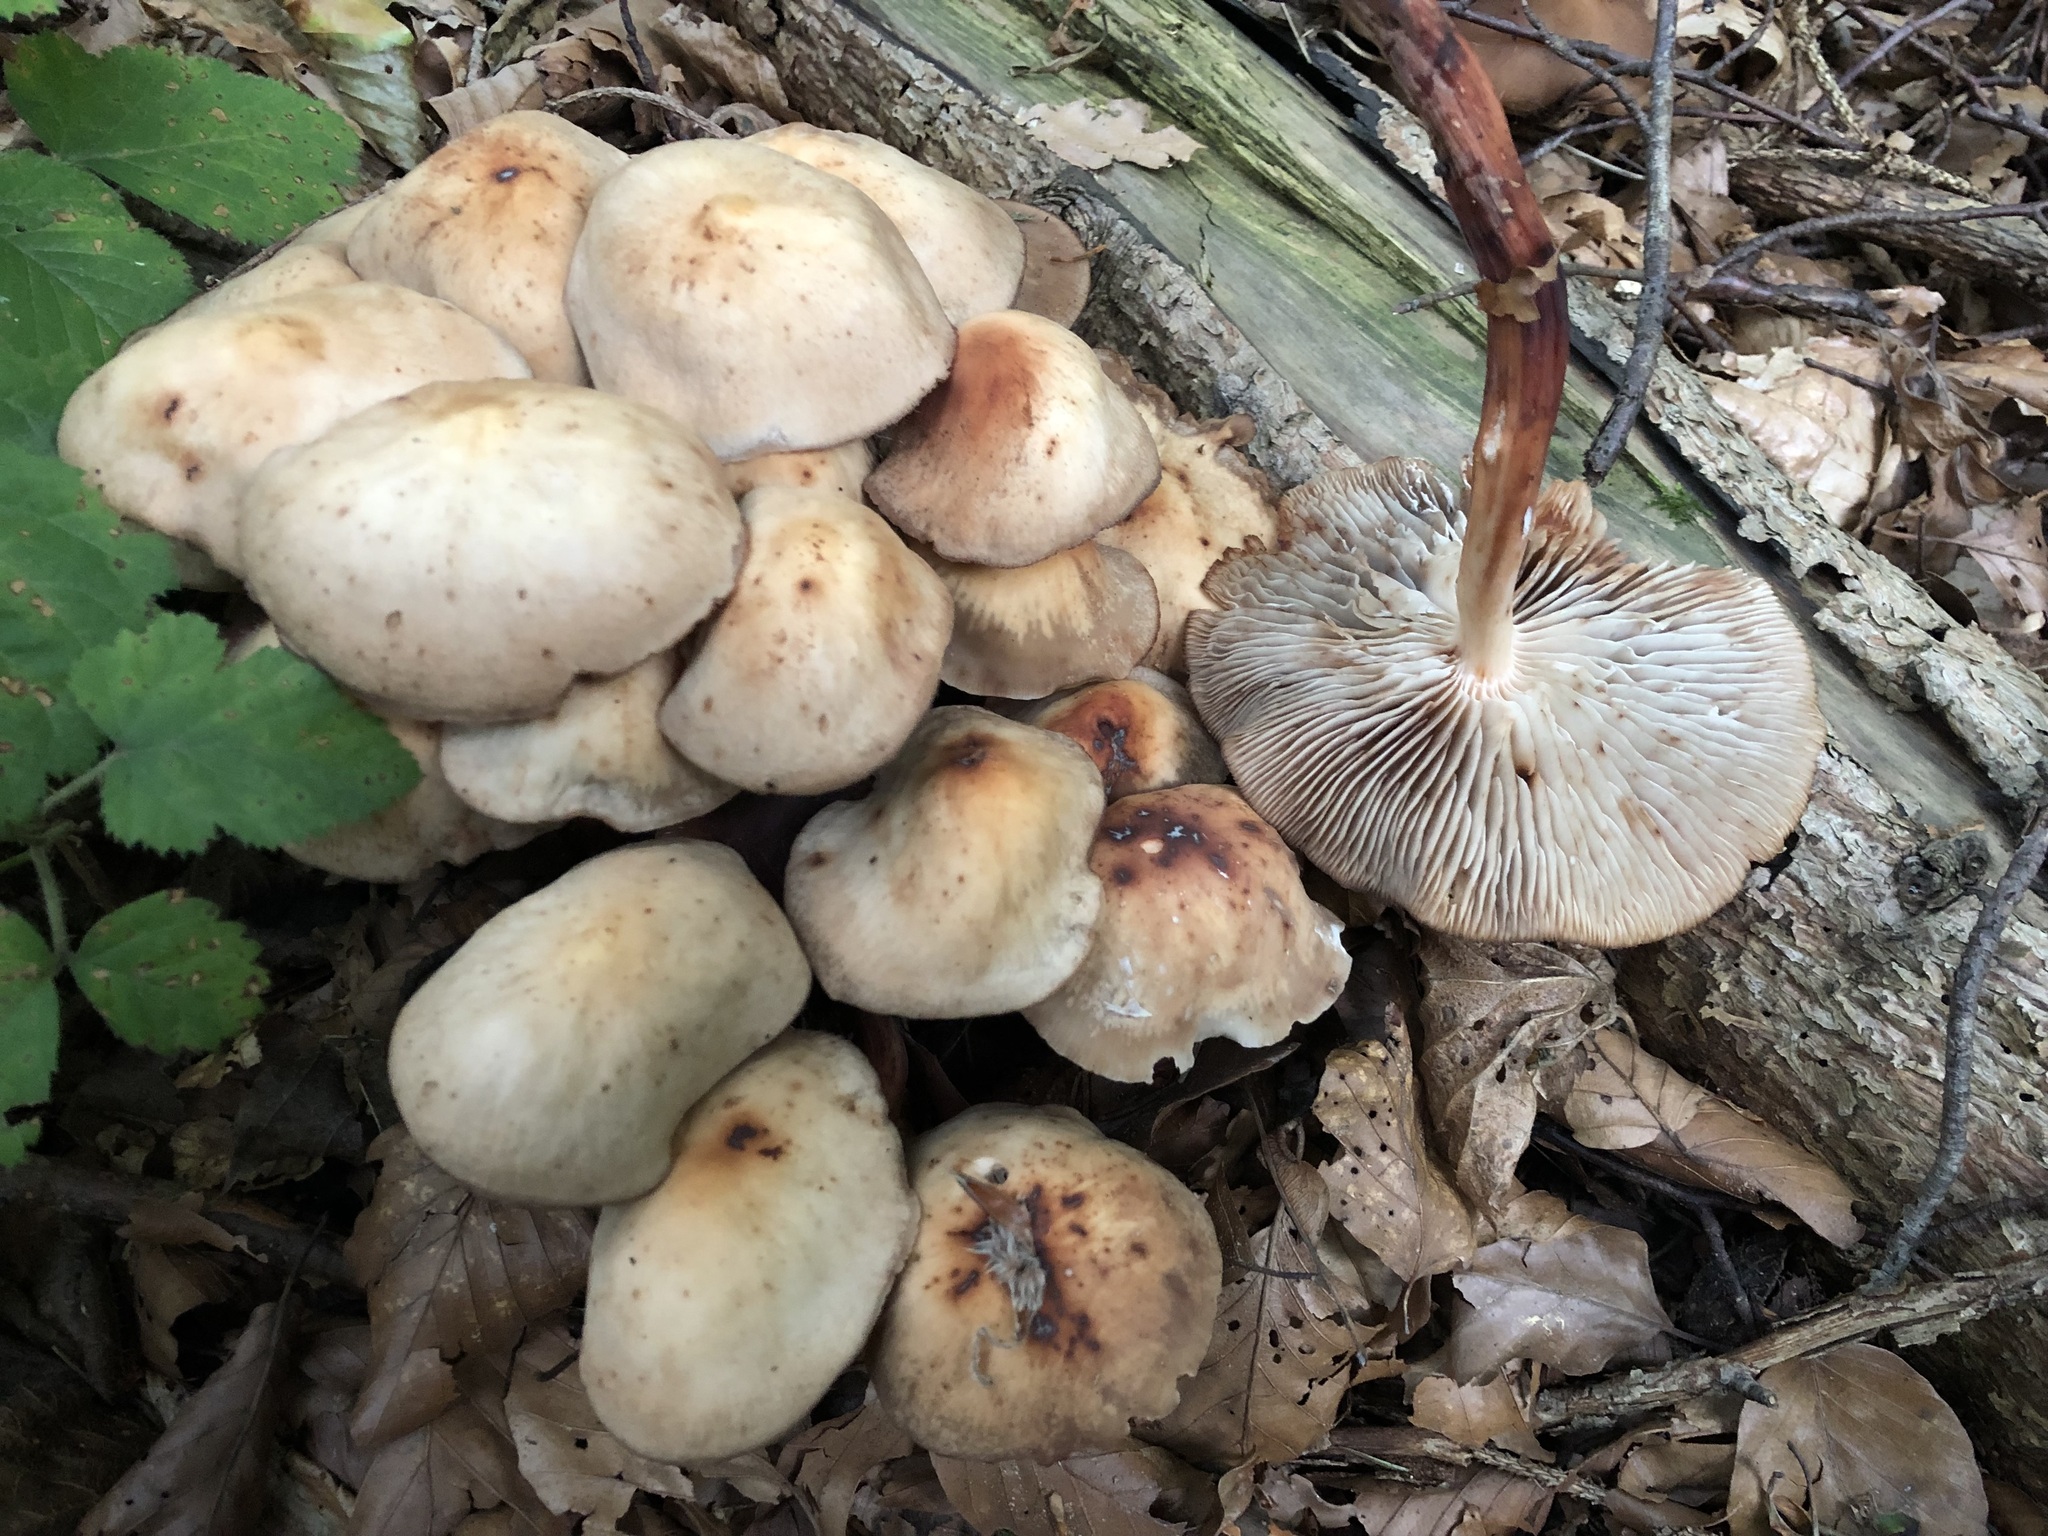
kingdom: Fungi
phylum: Basidiomycota
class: Agaricomycetes
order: Agaricales
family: Omphalotaceae
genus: Gymnopus
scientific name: Gymnopus fusipes
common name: Spindle shank
